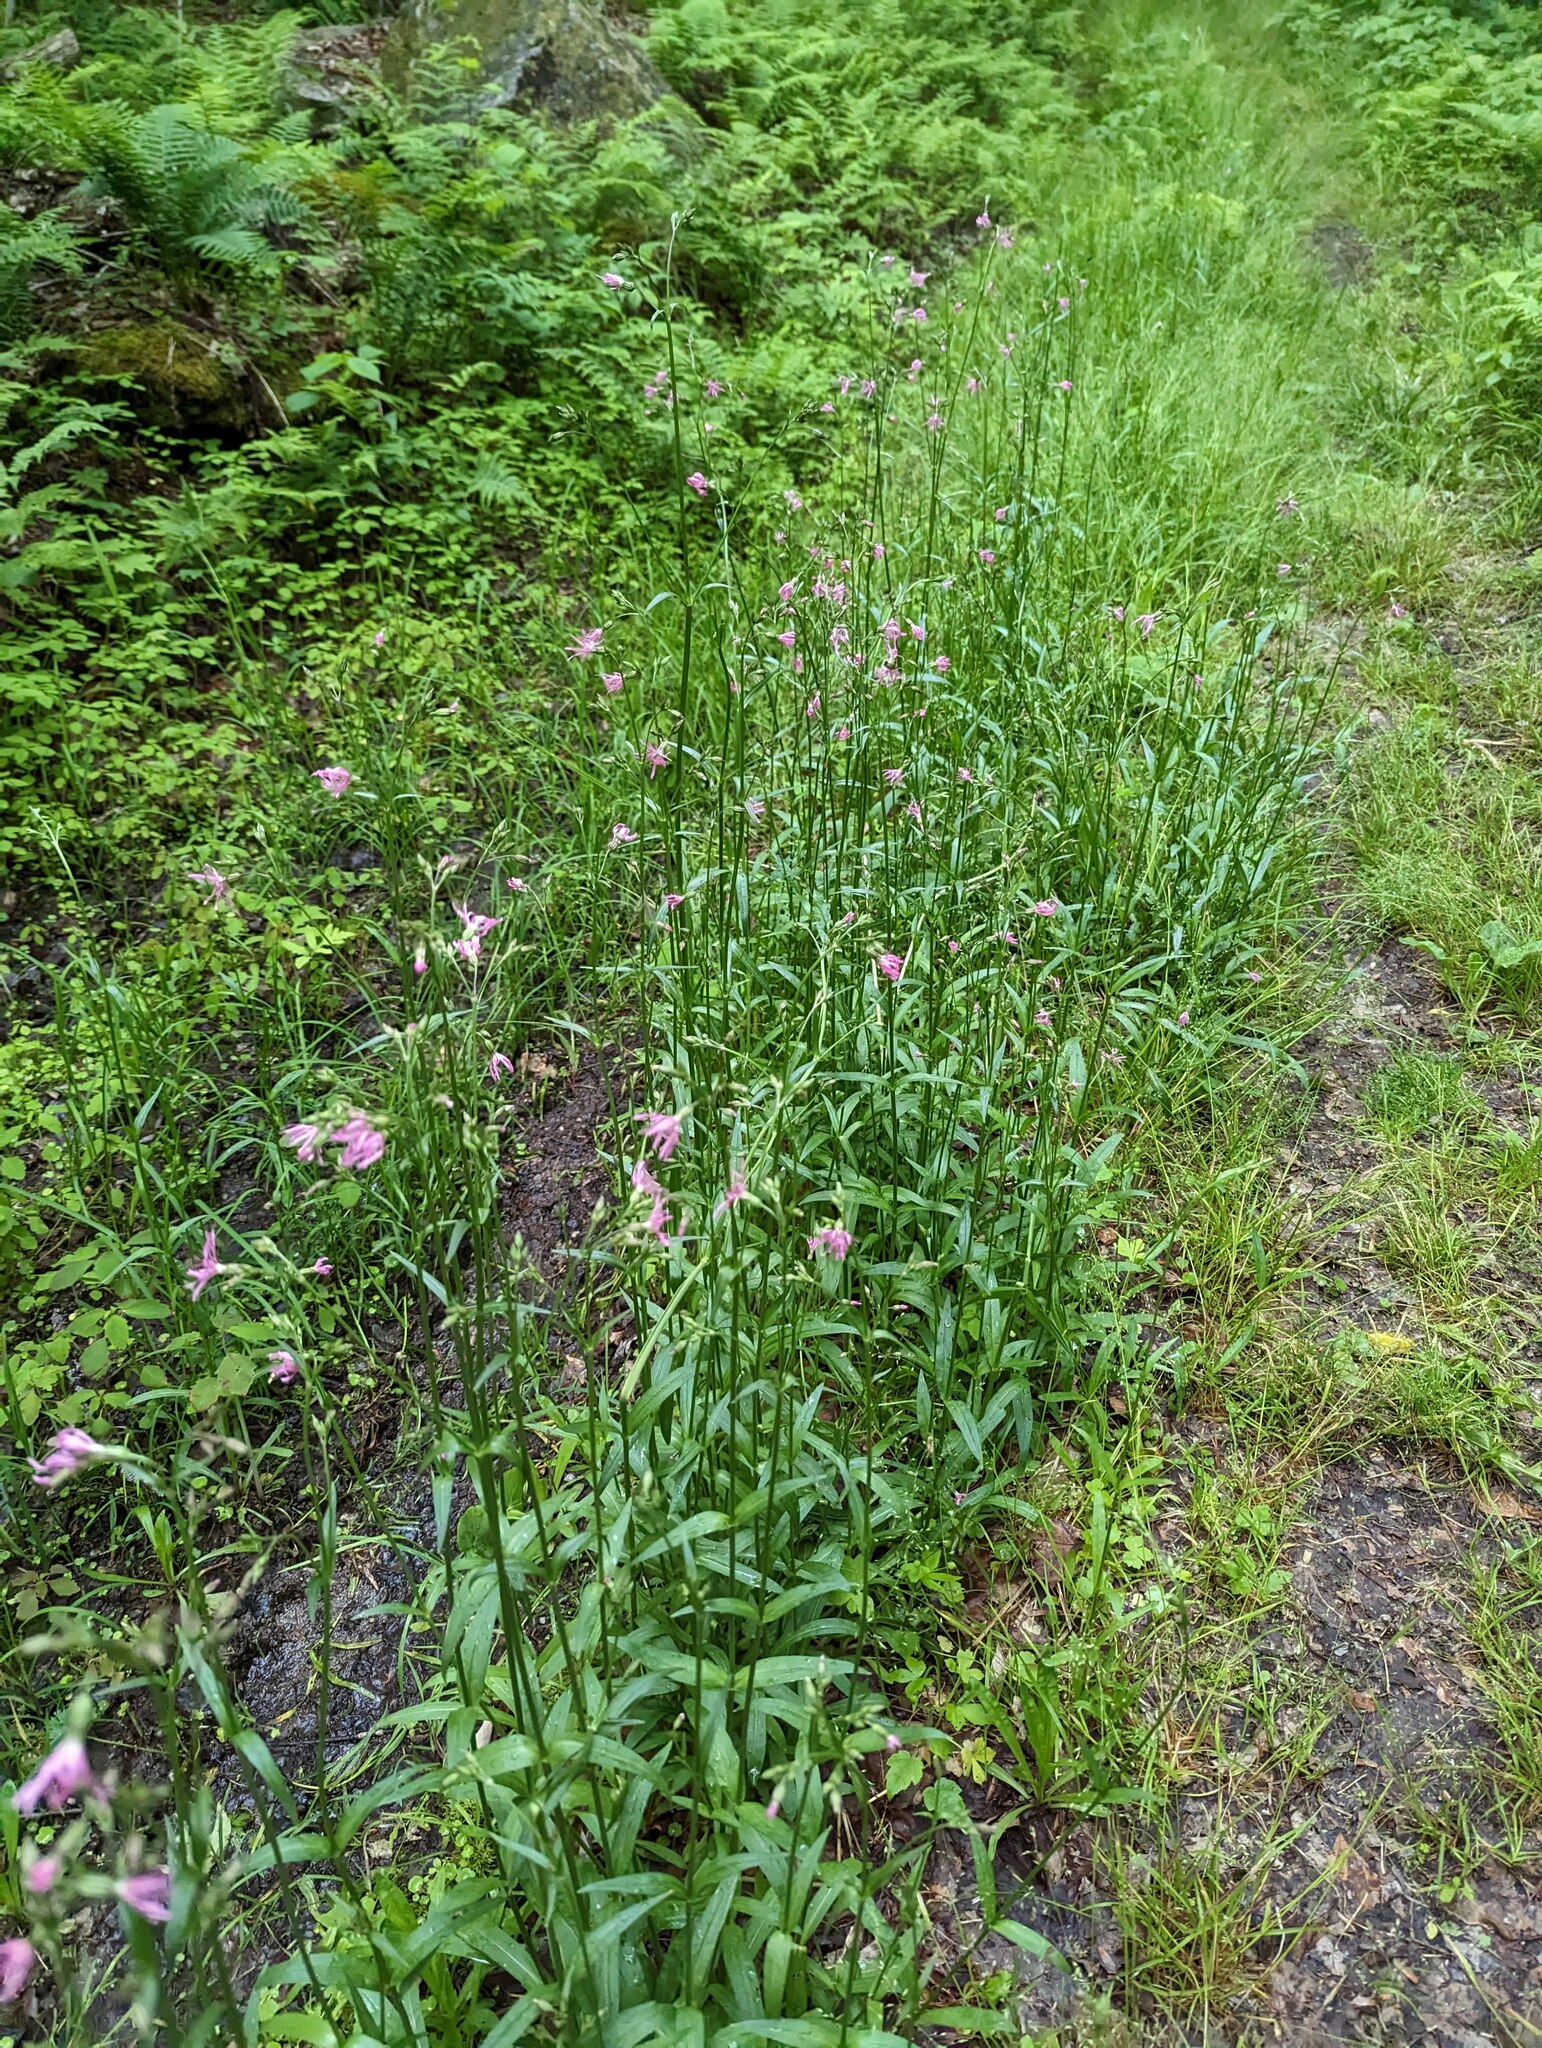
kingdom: Plantae
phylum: Tracheophyta
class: Magnoliopsida
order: Caryophyllales
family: Caryophyllaceae
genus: Silene
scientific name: Silene flos-cuculi
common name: Ragged-robin
